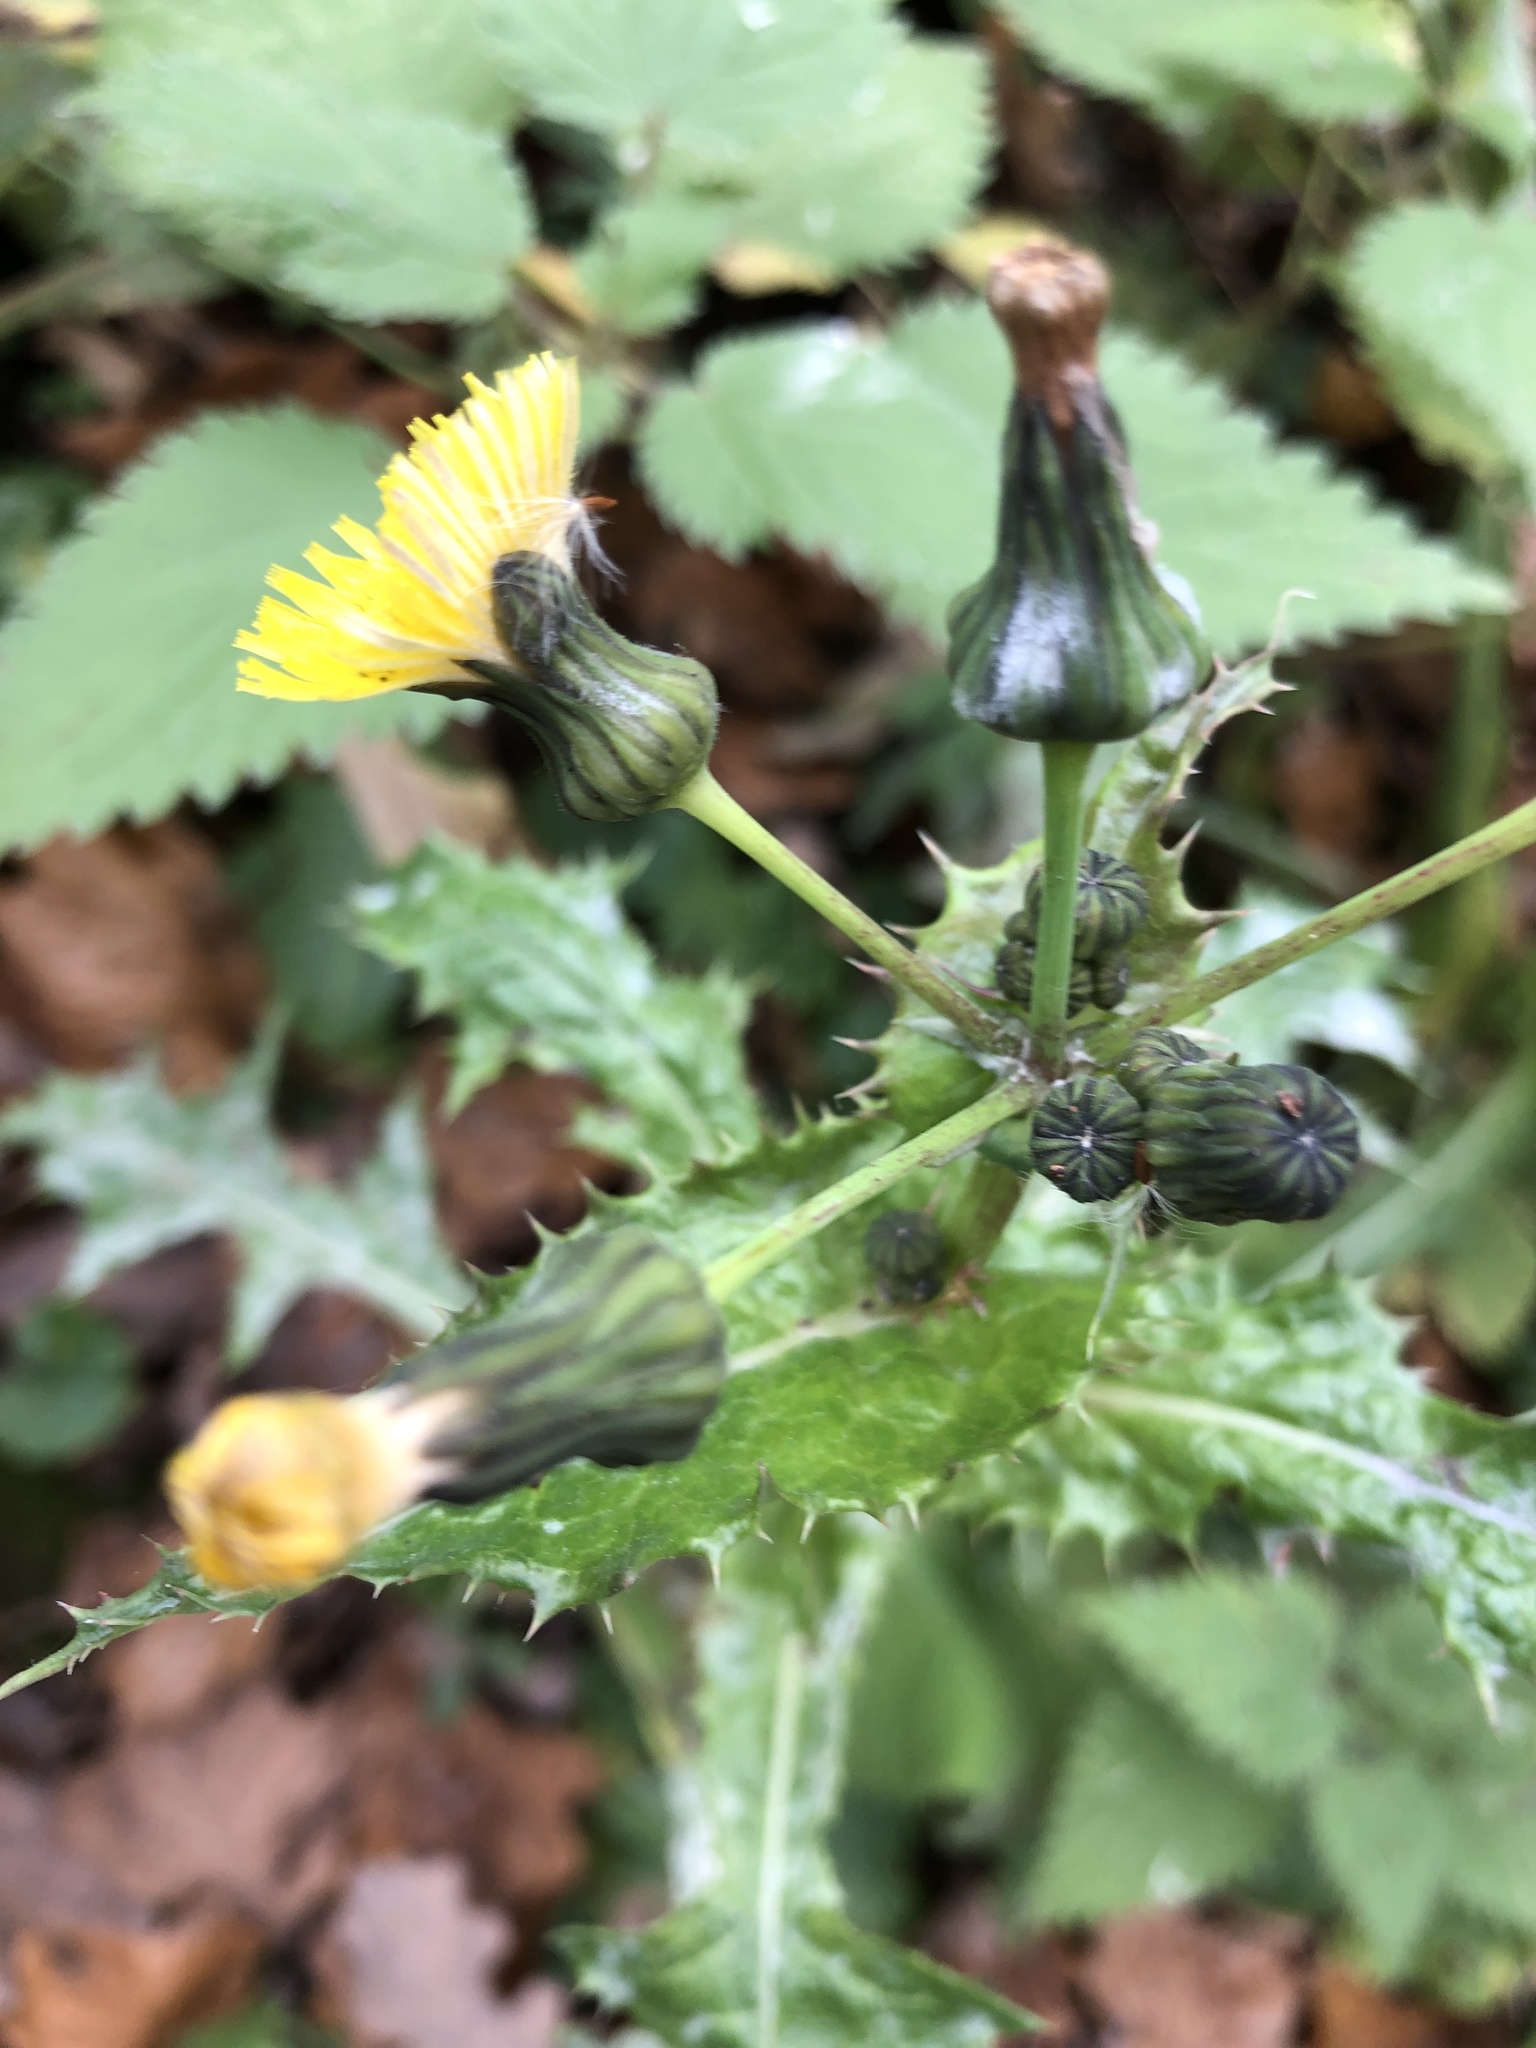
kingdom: Plantae
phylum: Tracheophyta
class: Magnoliopsida
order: Asterales
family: Asteraceae
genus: Sonchus
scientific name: Sonchus asper
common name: Prickly sow-thistle
